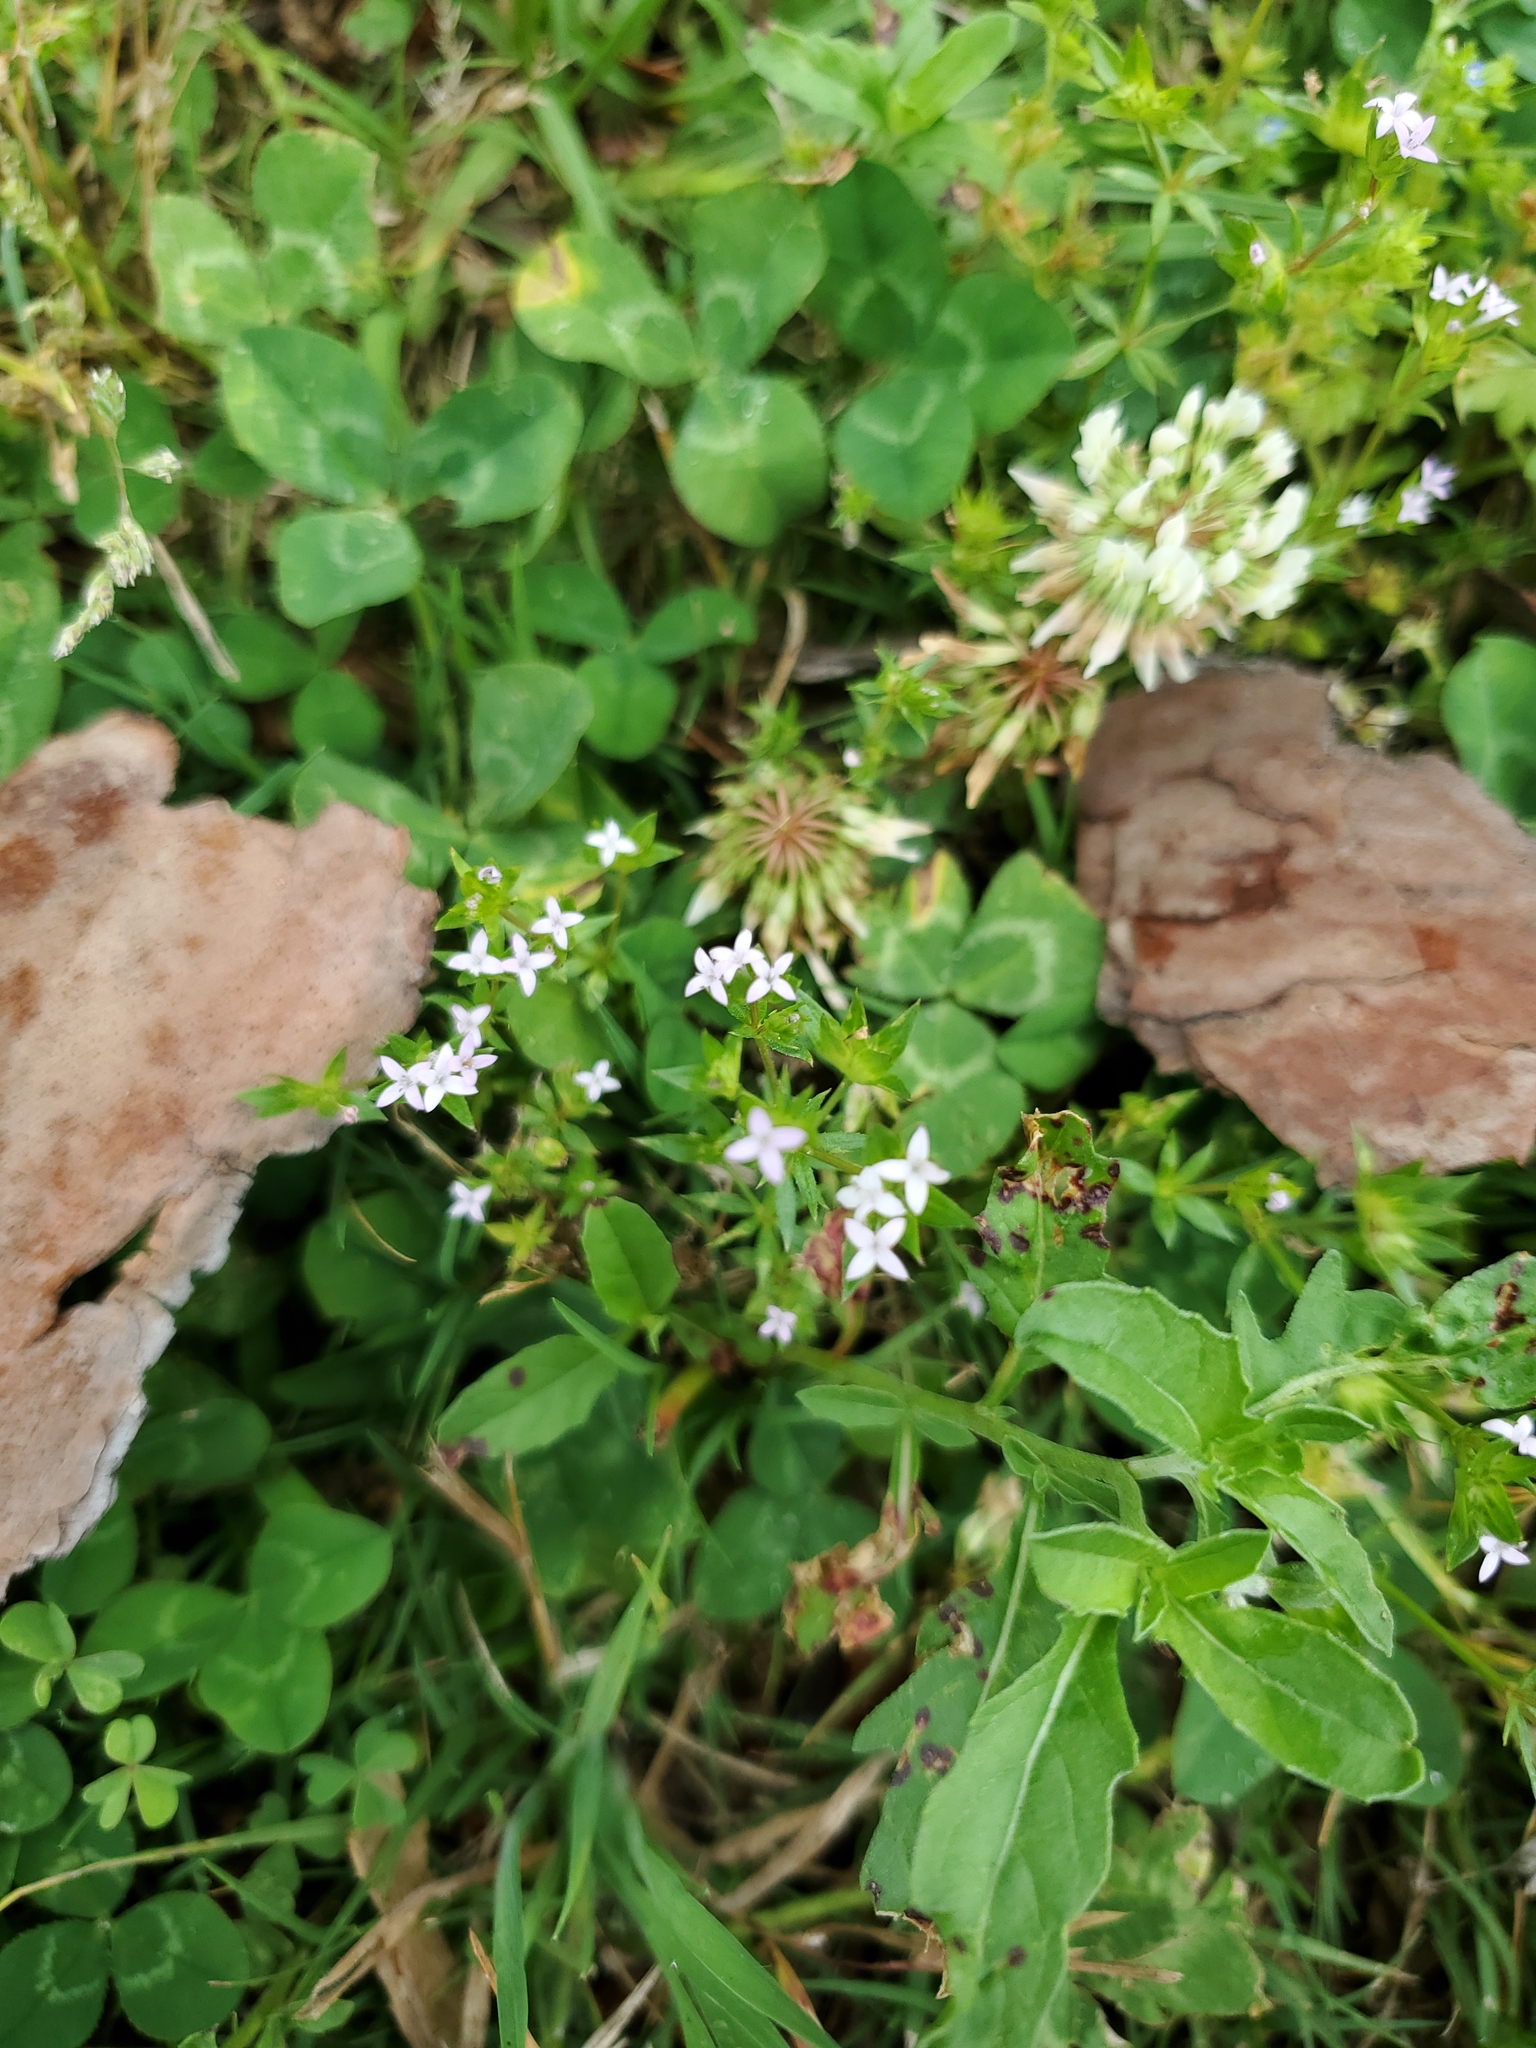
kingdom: Plantae
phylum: Tracheophyta
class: Magnoliopsida
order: Gentianales
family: Rubiaceae
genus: Sherardia
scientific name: Sherardia arvensis
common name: Field madder
